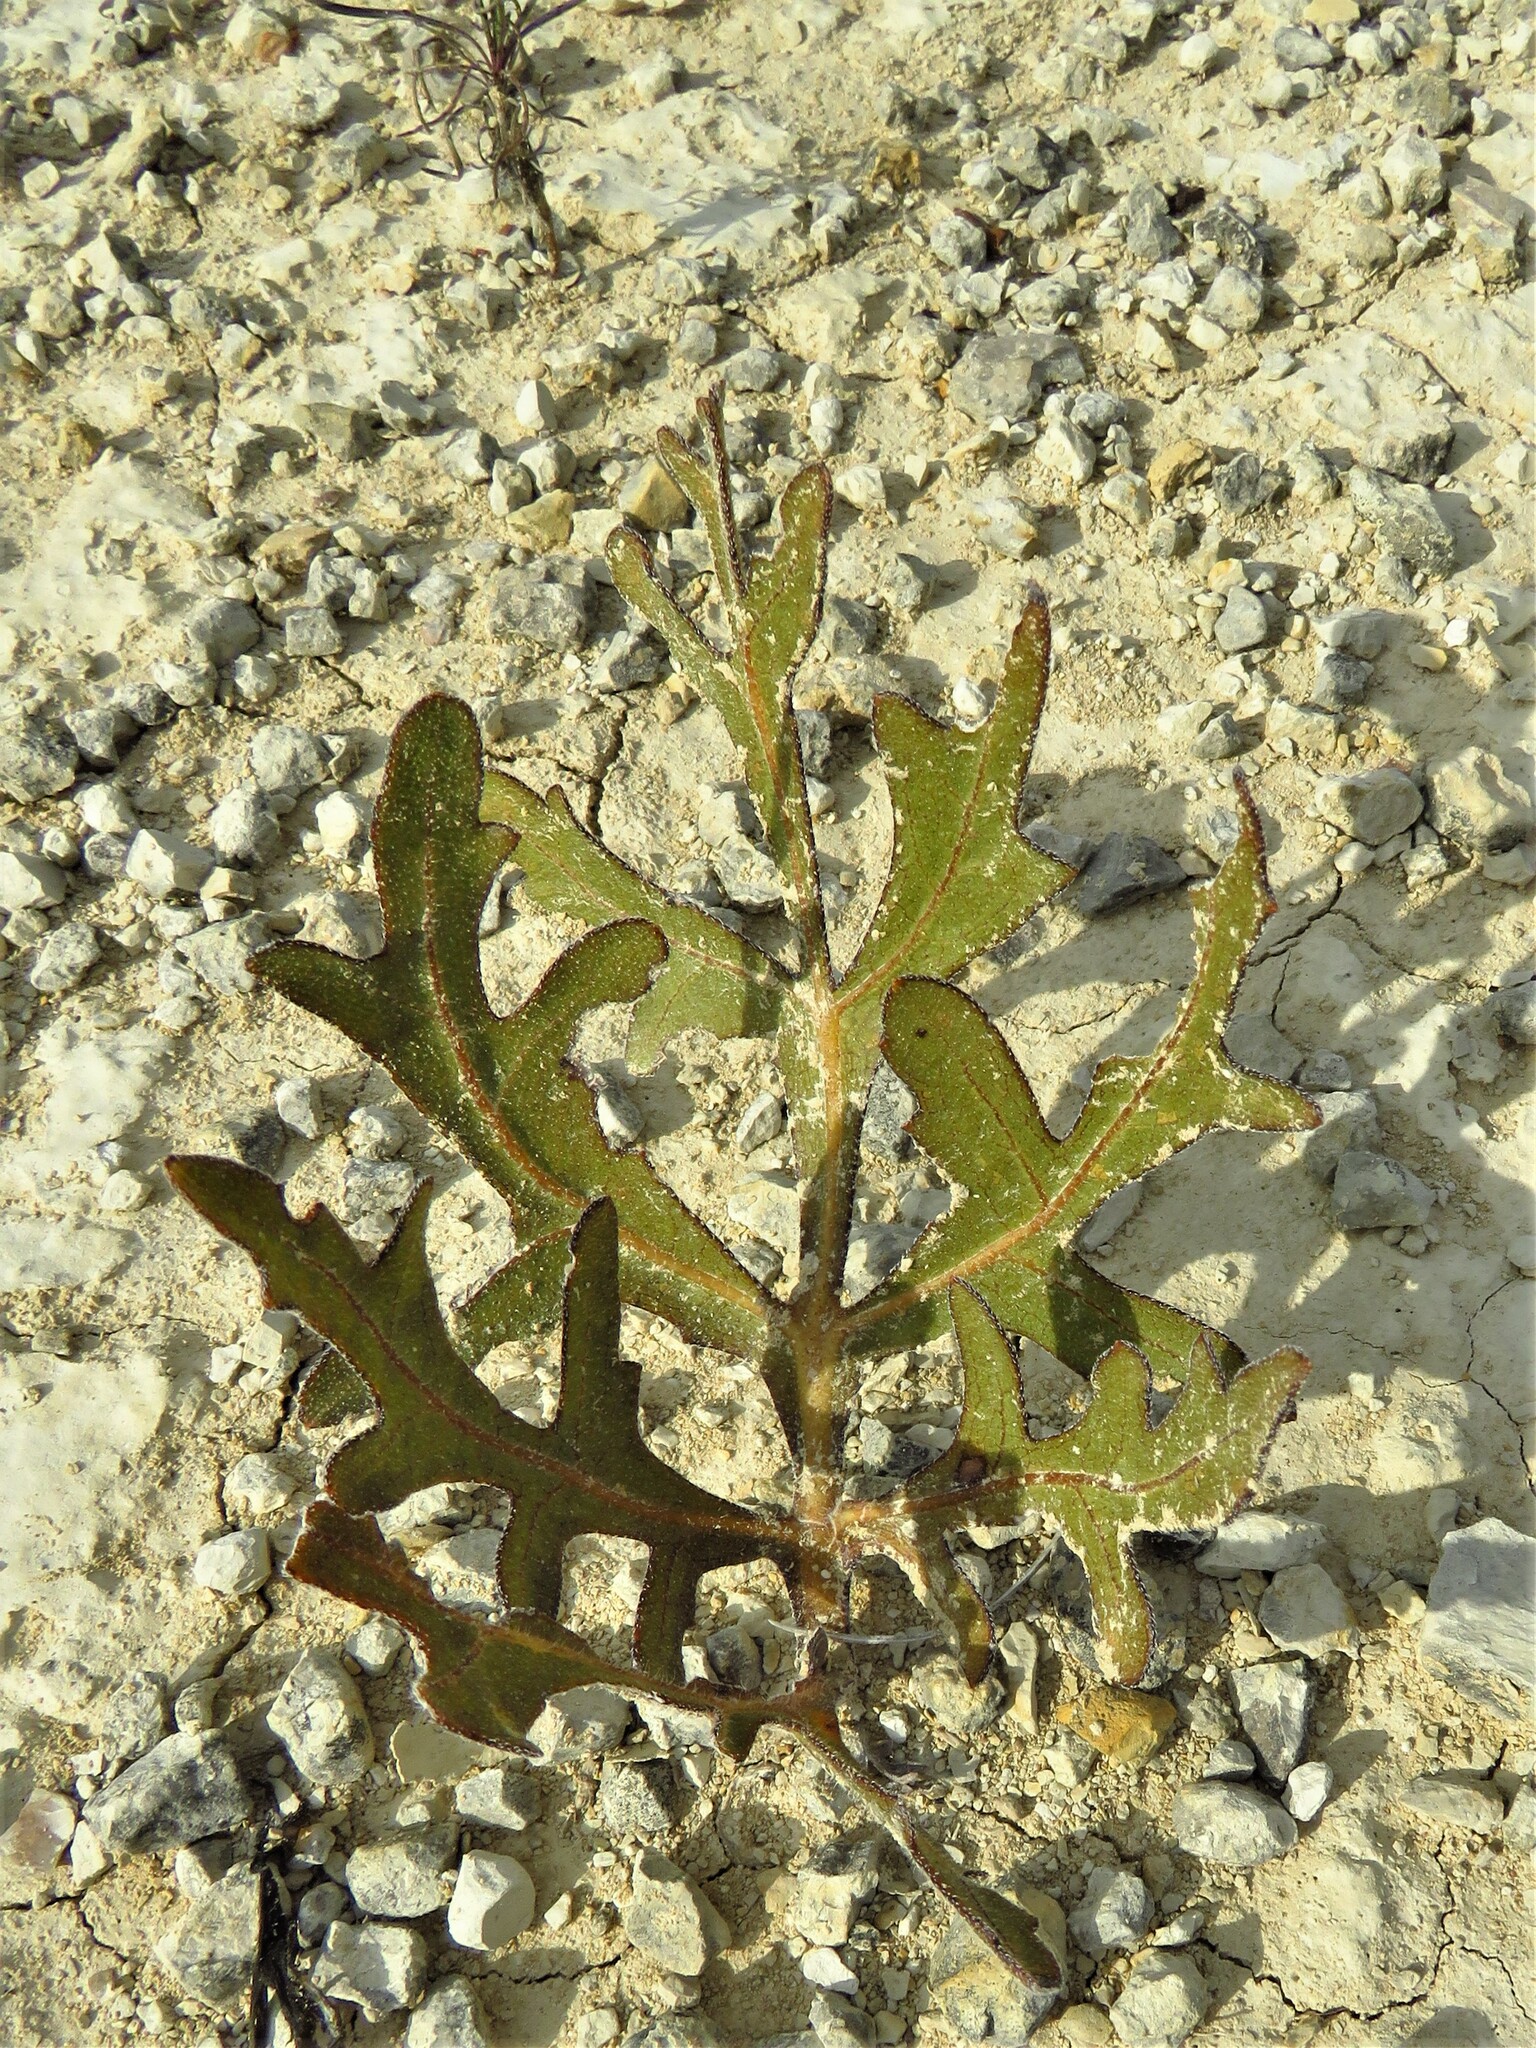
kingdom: Plantae
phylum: Tracheophyta
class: Magnoliopsida
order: Asterales
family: Asteraceae
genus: Silphium
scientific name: Silphium albiflorum
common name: White rosinweed
